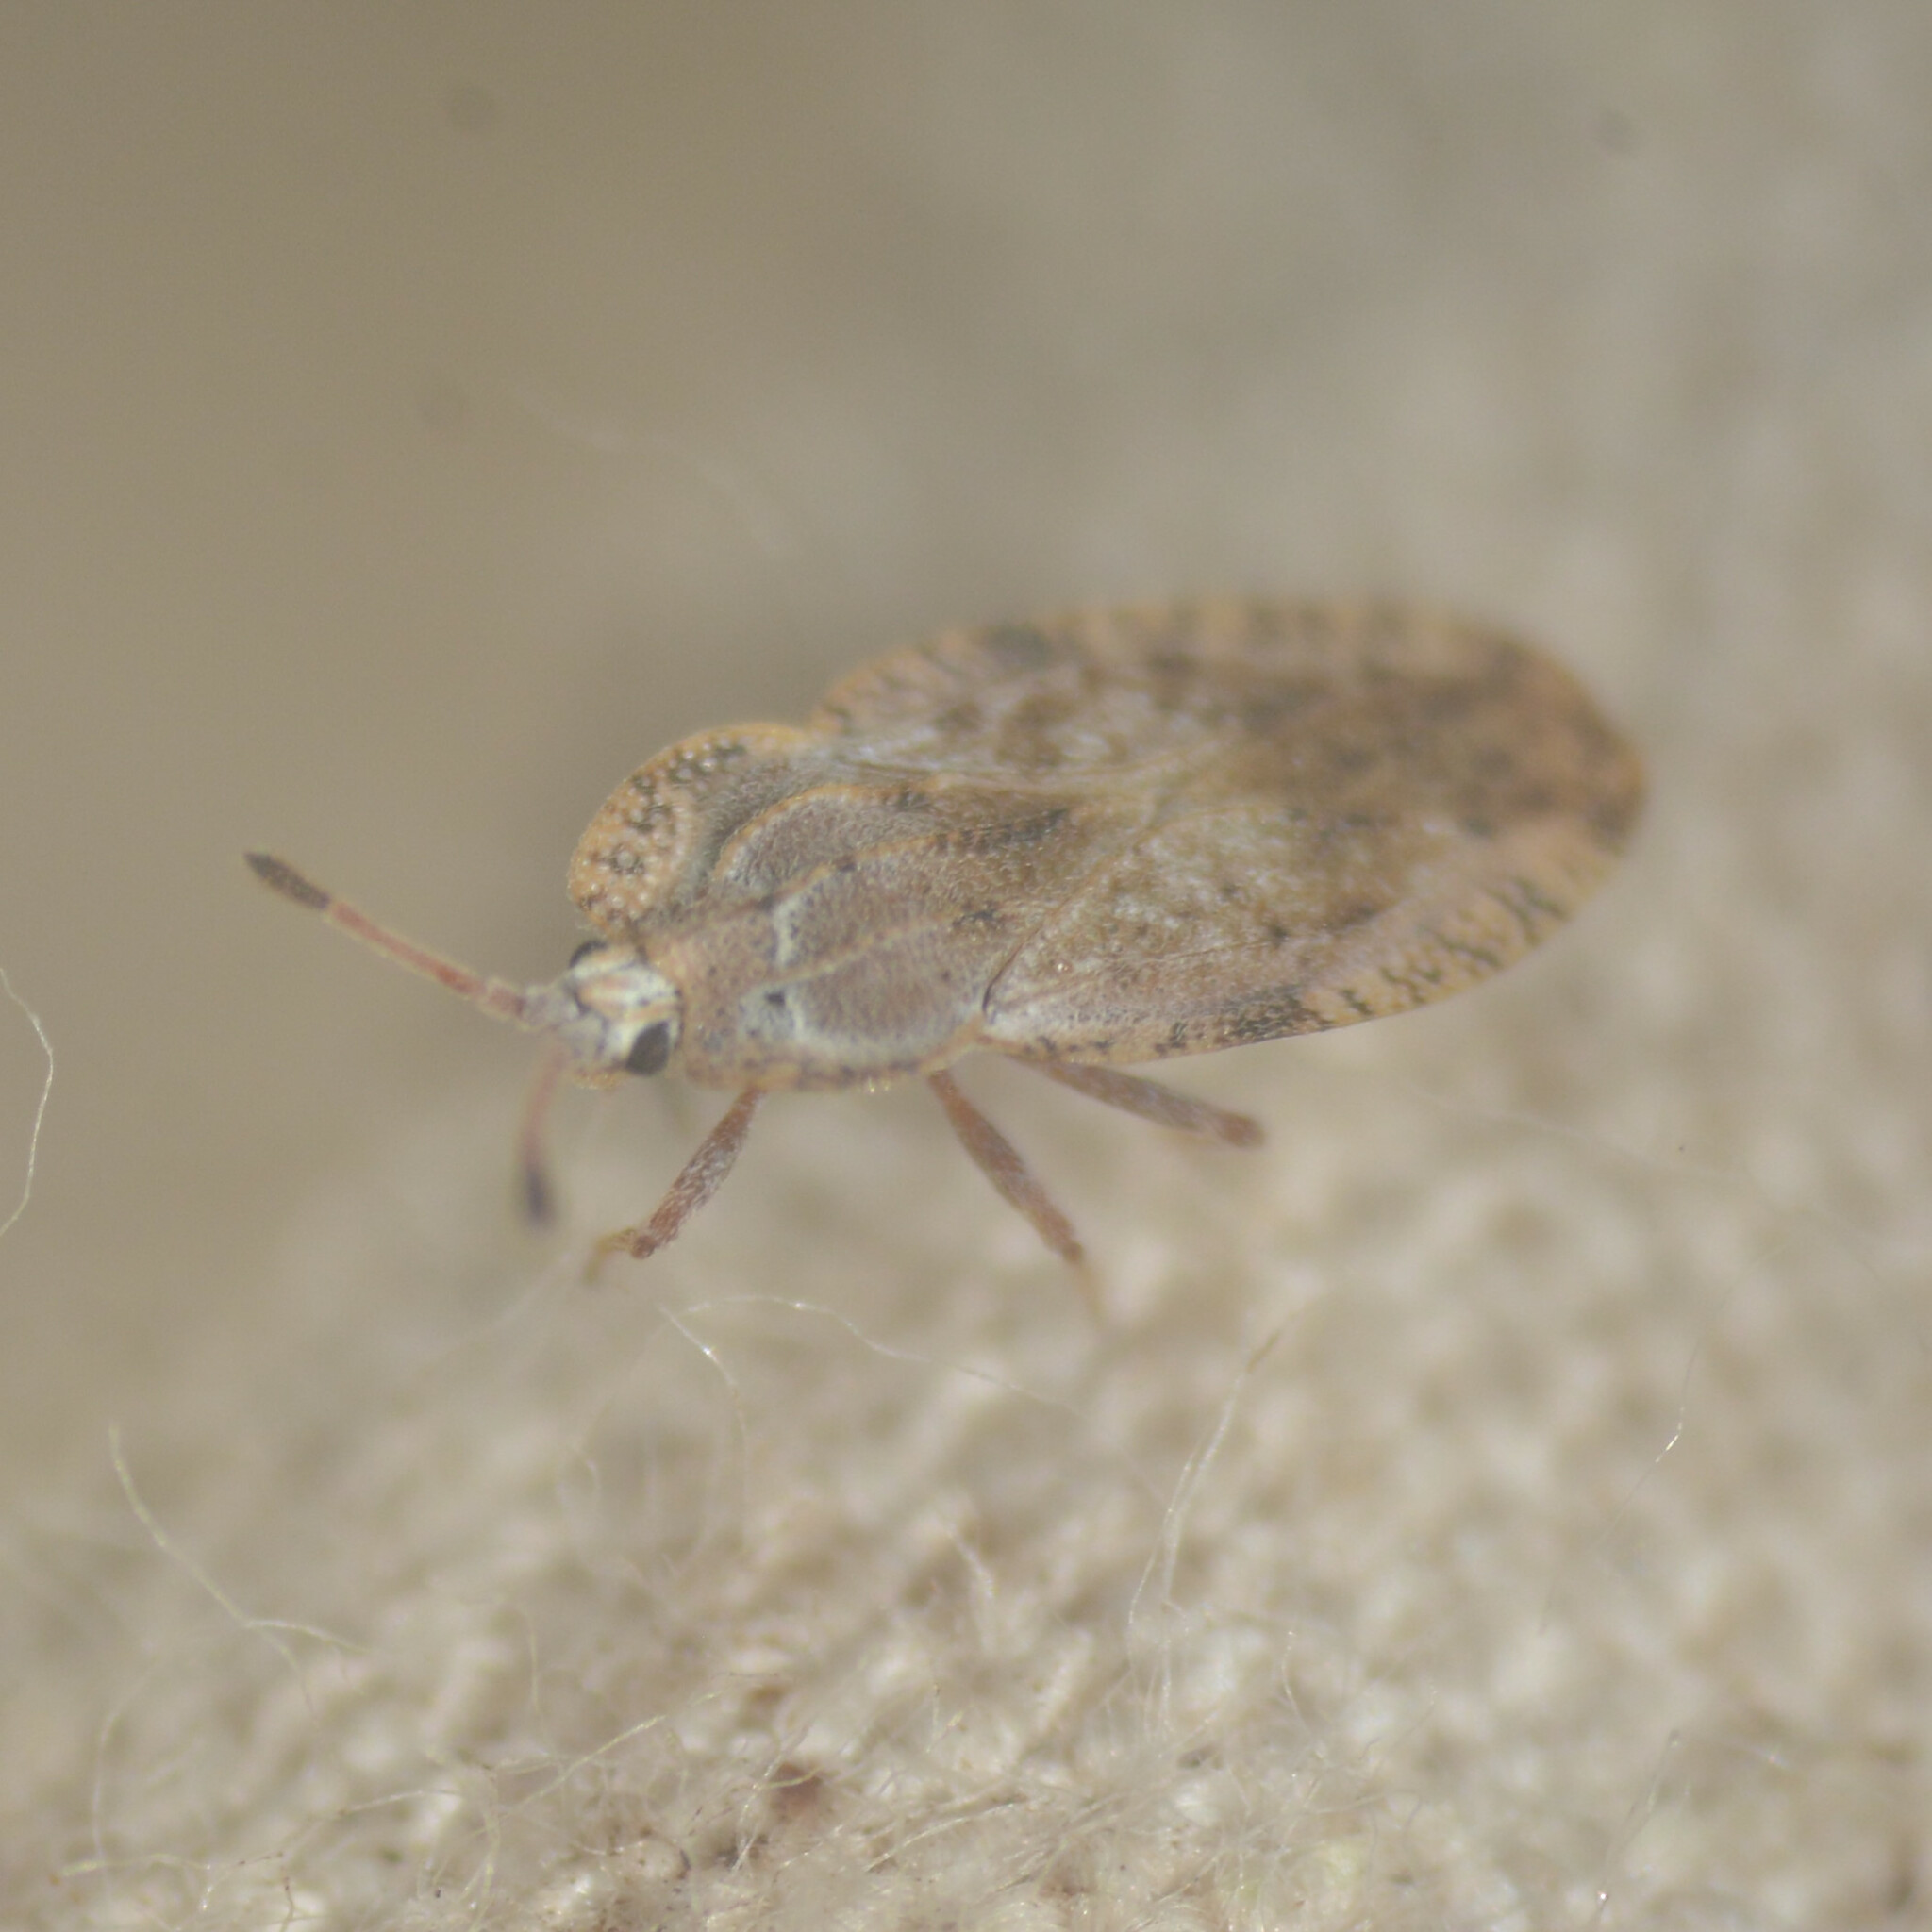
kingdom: Animalia
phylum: Arthropoda
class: Insecta
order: Hemiptera
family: Tingidae
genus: Tingis
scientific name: Tingis ampliata
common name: Creeping thistle lacebug
